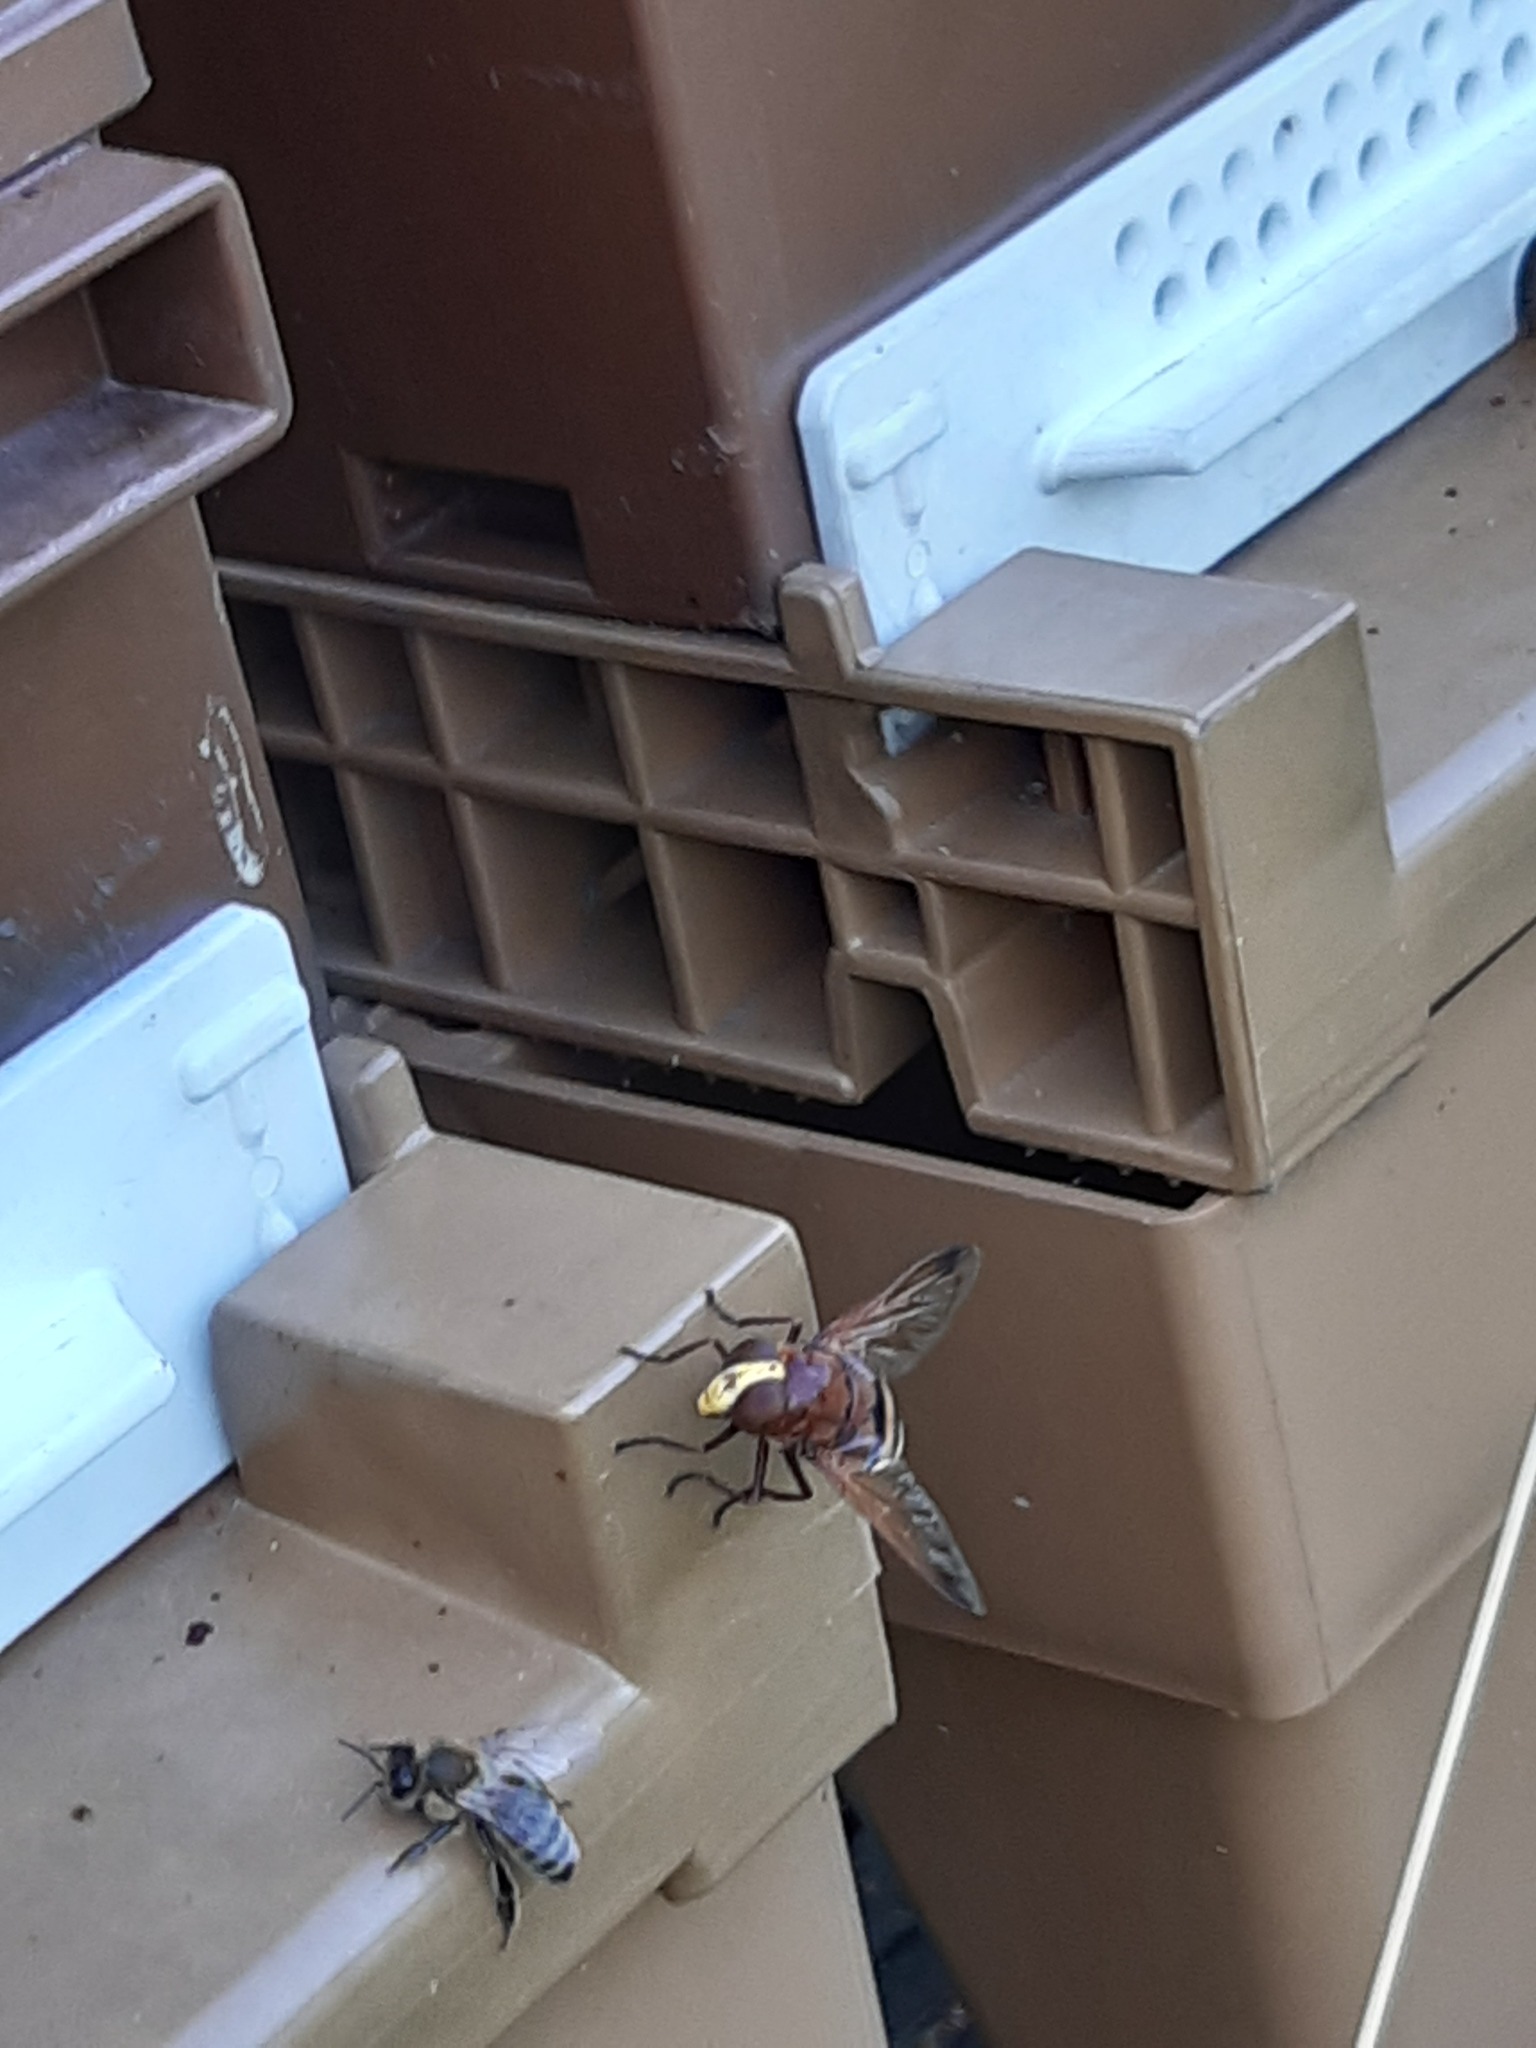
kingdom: Animalia
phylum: Arthropoda
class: Insecta
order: Diptera
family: Syrphidae
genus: Volucella
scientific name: Volucella zonaria
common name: Hornet hoverfly
